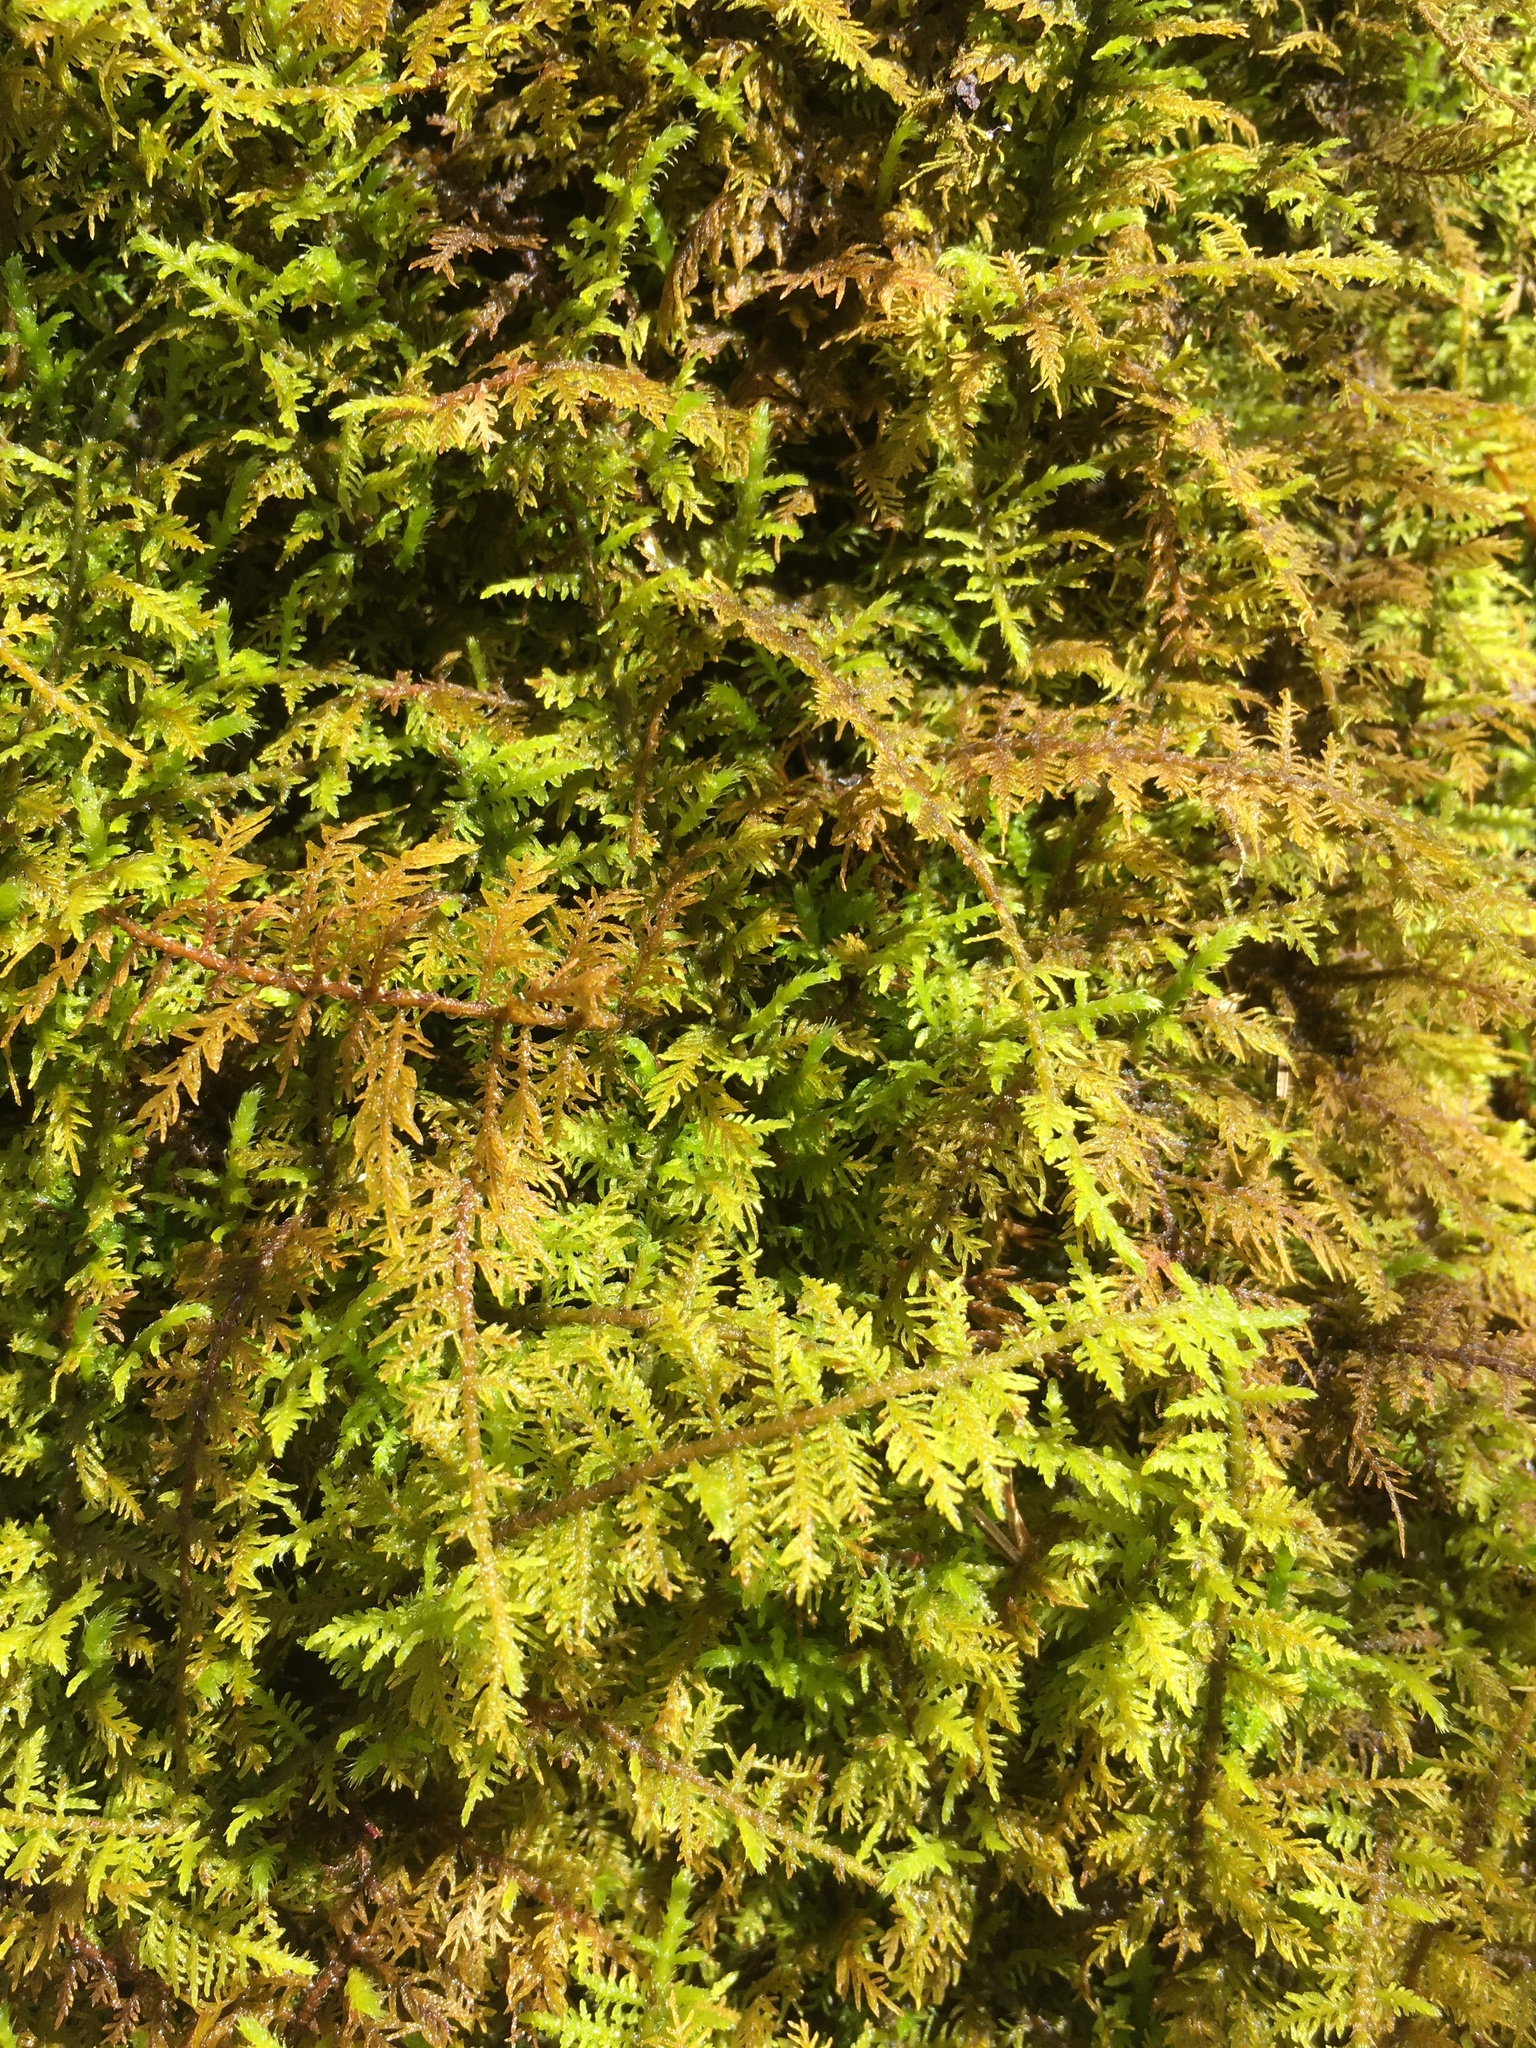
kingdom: Plantae
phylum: Bryophyta
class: Bryopsida
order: Hypnales
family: Thuidiaceae
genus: Thuidium
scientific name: Thuidium delicatulum
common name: Delicate fern moss
